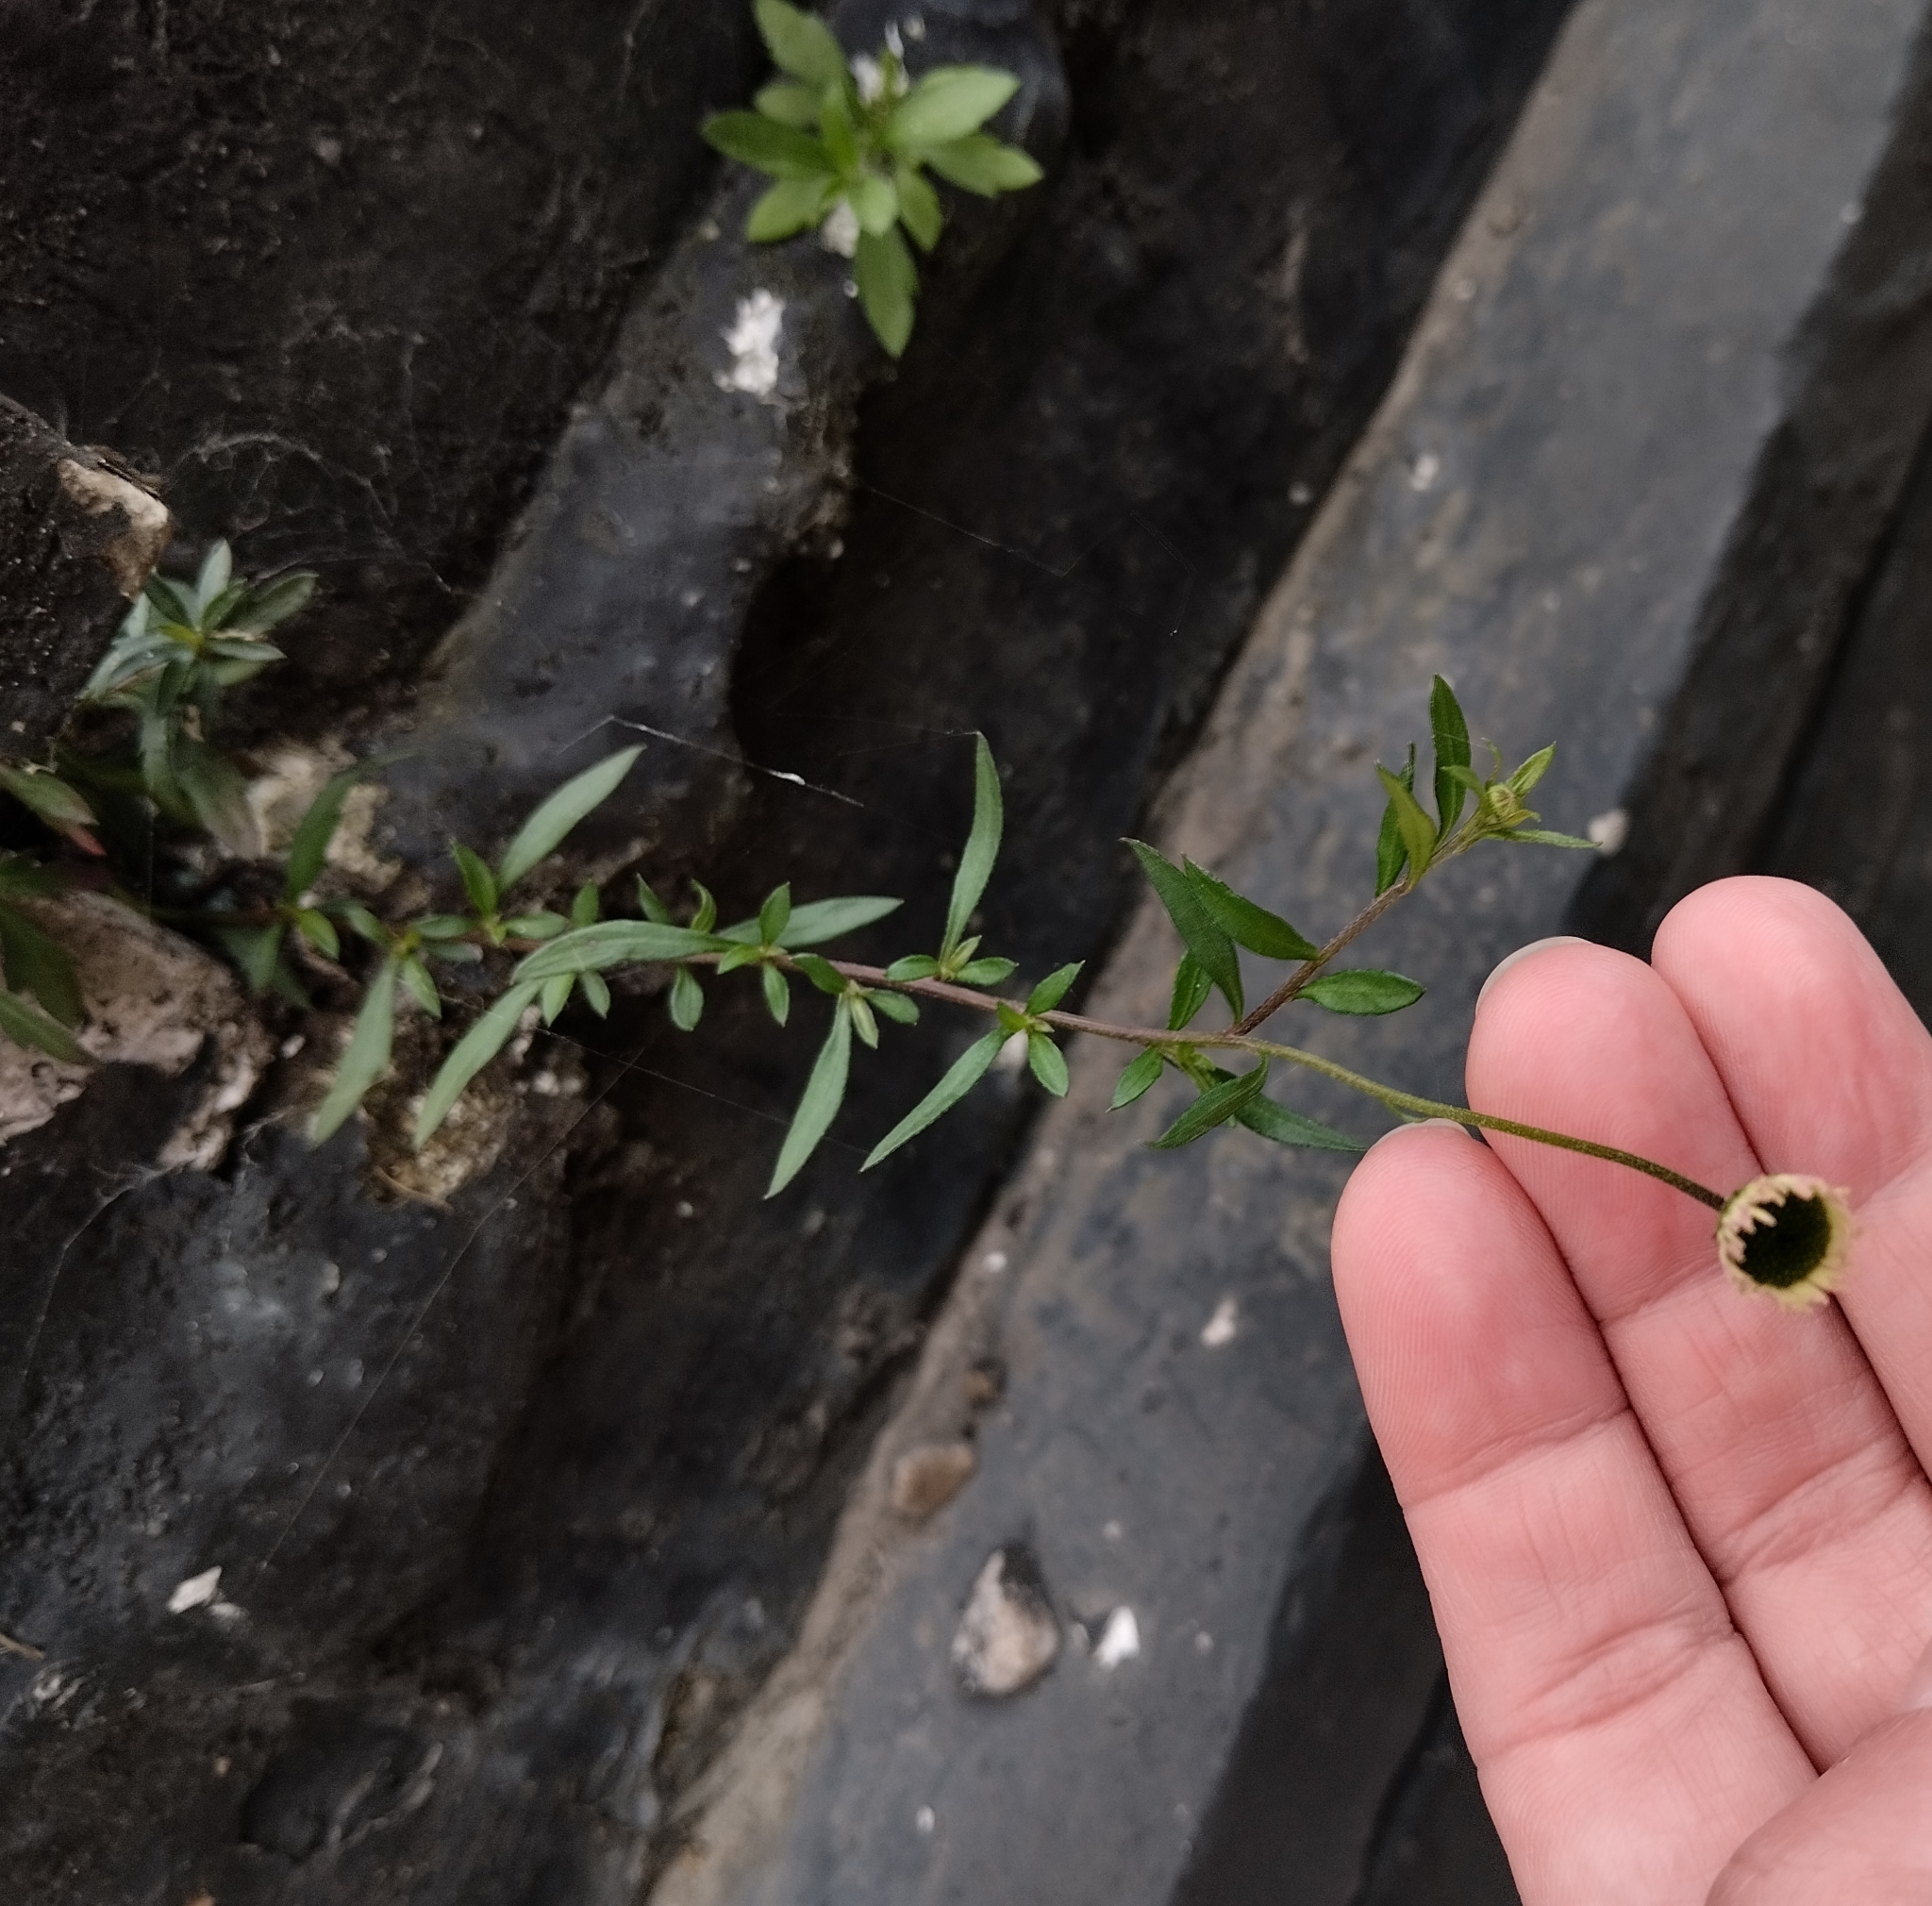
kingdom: Plantae
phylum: Tracheophyta
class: Magnoliopsida
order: Asterales
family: Asteraceae
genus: Erigeron
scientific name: Erigeron karvinskianus
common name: Mexican fleabane
